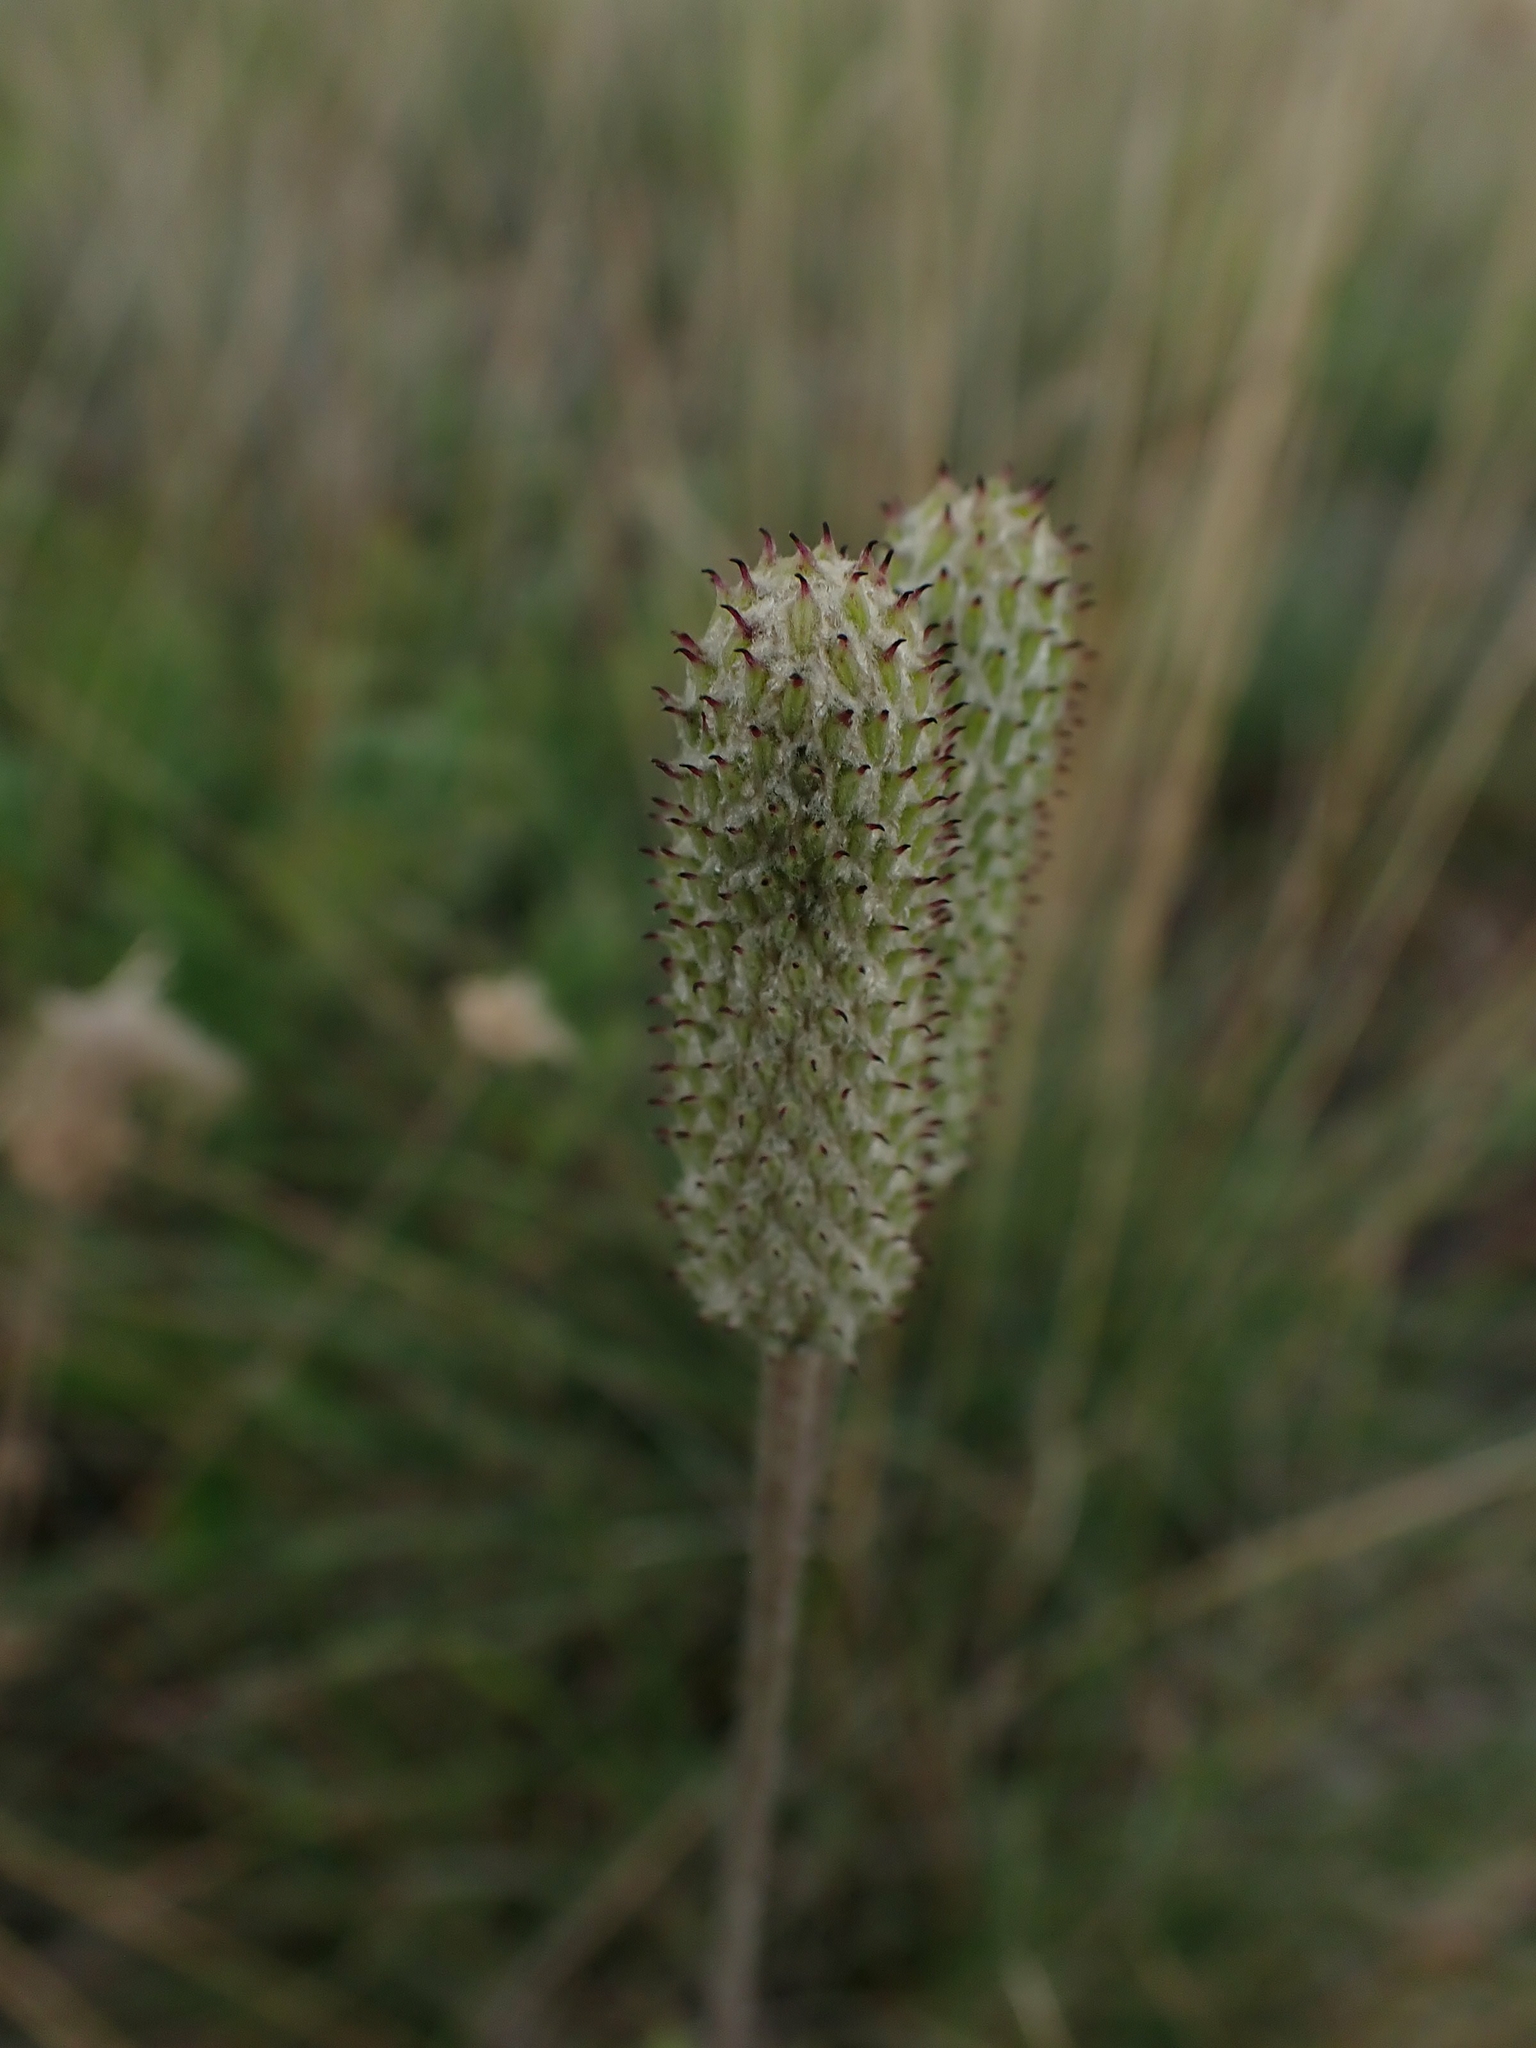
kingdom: Plantae
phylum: Tracheophyta
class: Magnoliopsida
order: Ranunculales
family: Ranunculaceae
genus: Anemone
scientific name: Anemone cylindrica
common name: Candle anemone
